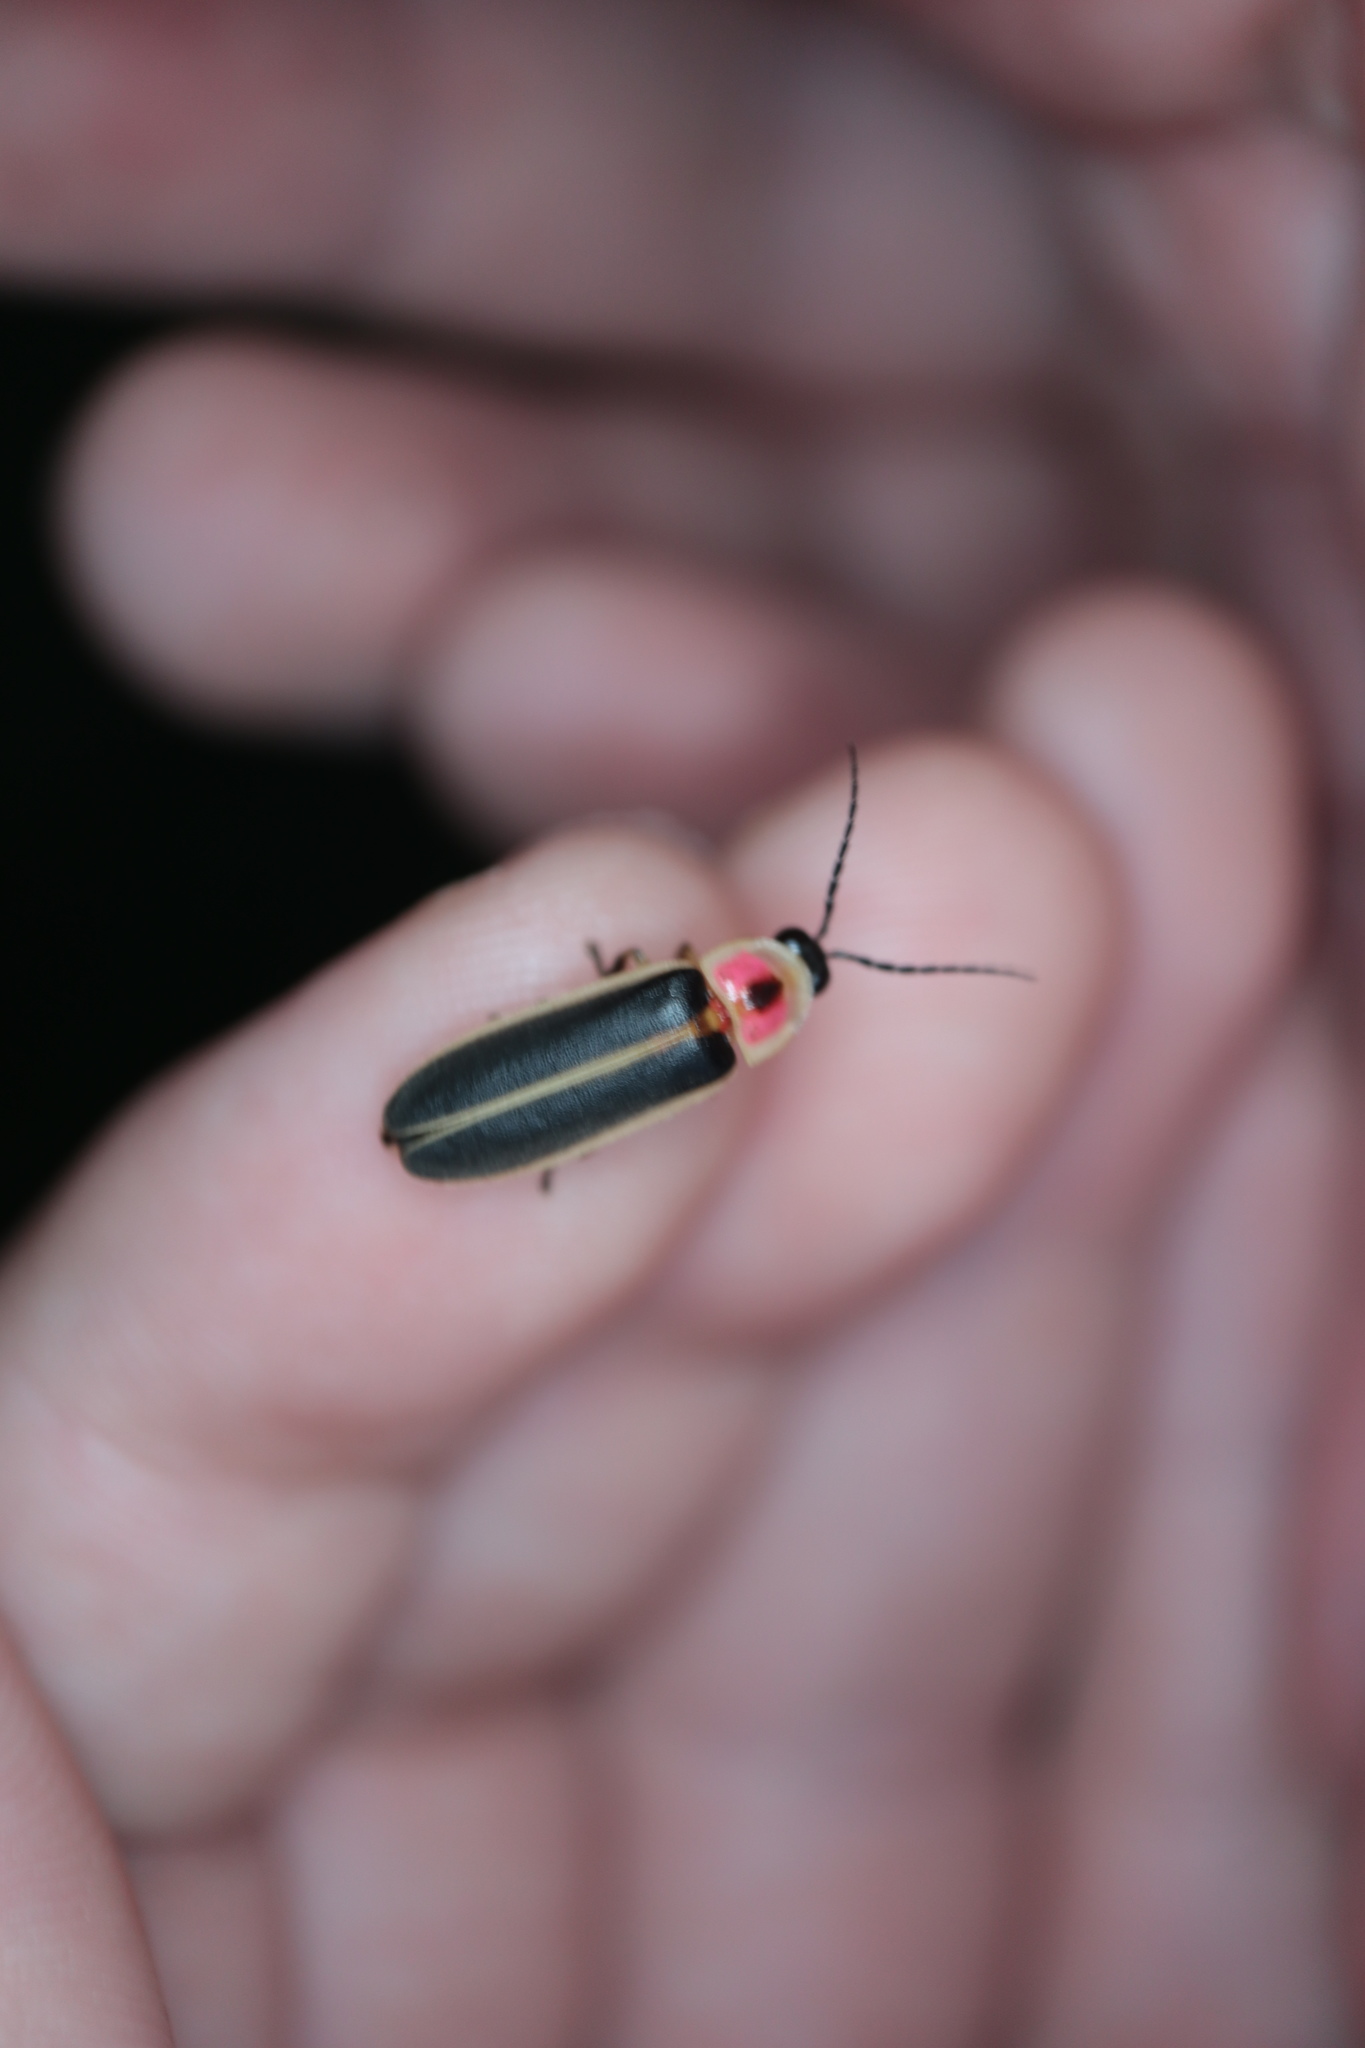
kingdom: Animalia
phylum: Arthropoda
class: Insecta
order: Coleoptera
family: Lampyridae
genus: Photinus
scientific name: Photinus pyralis
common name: Big dipper firefly
